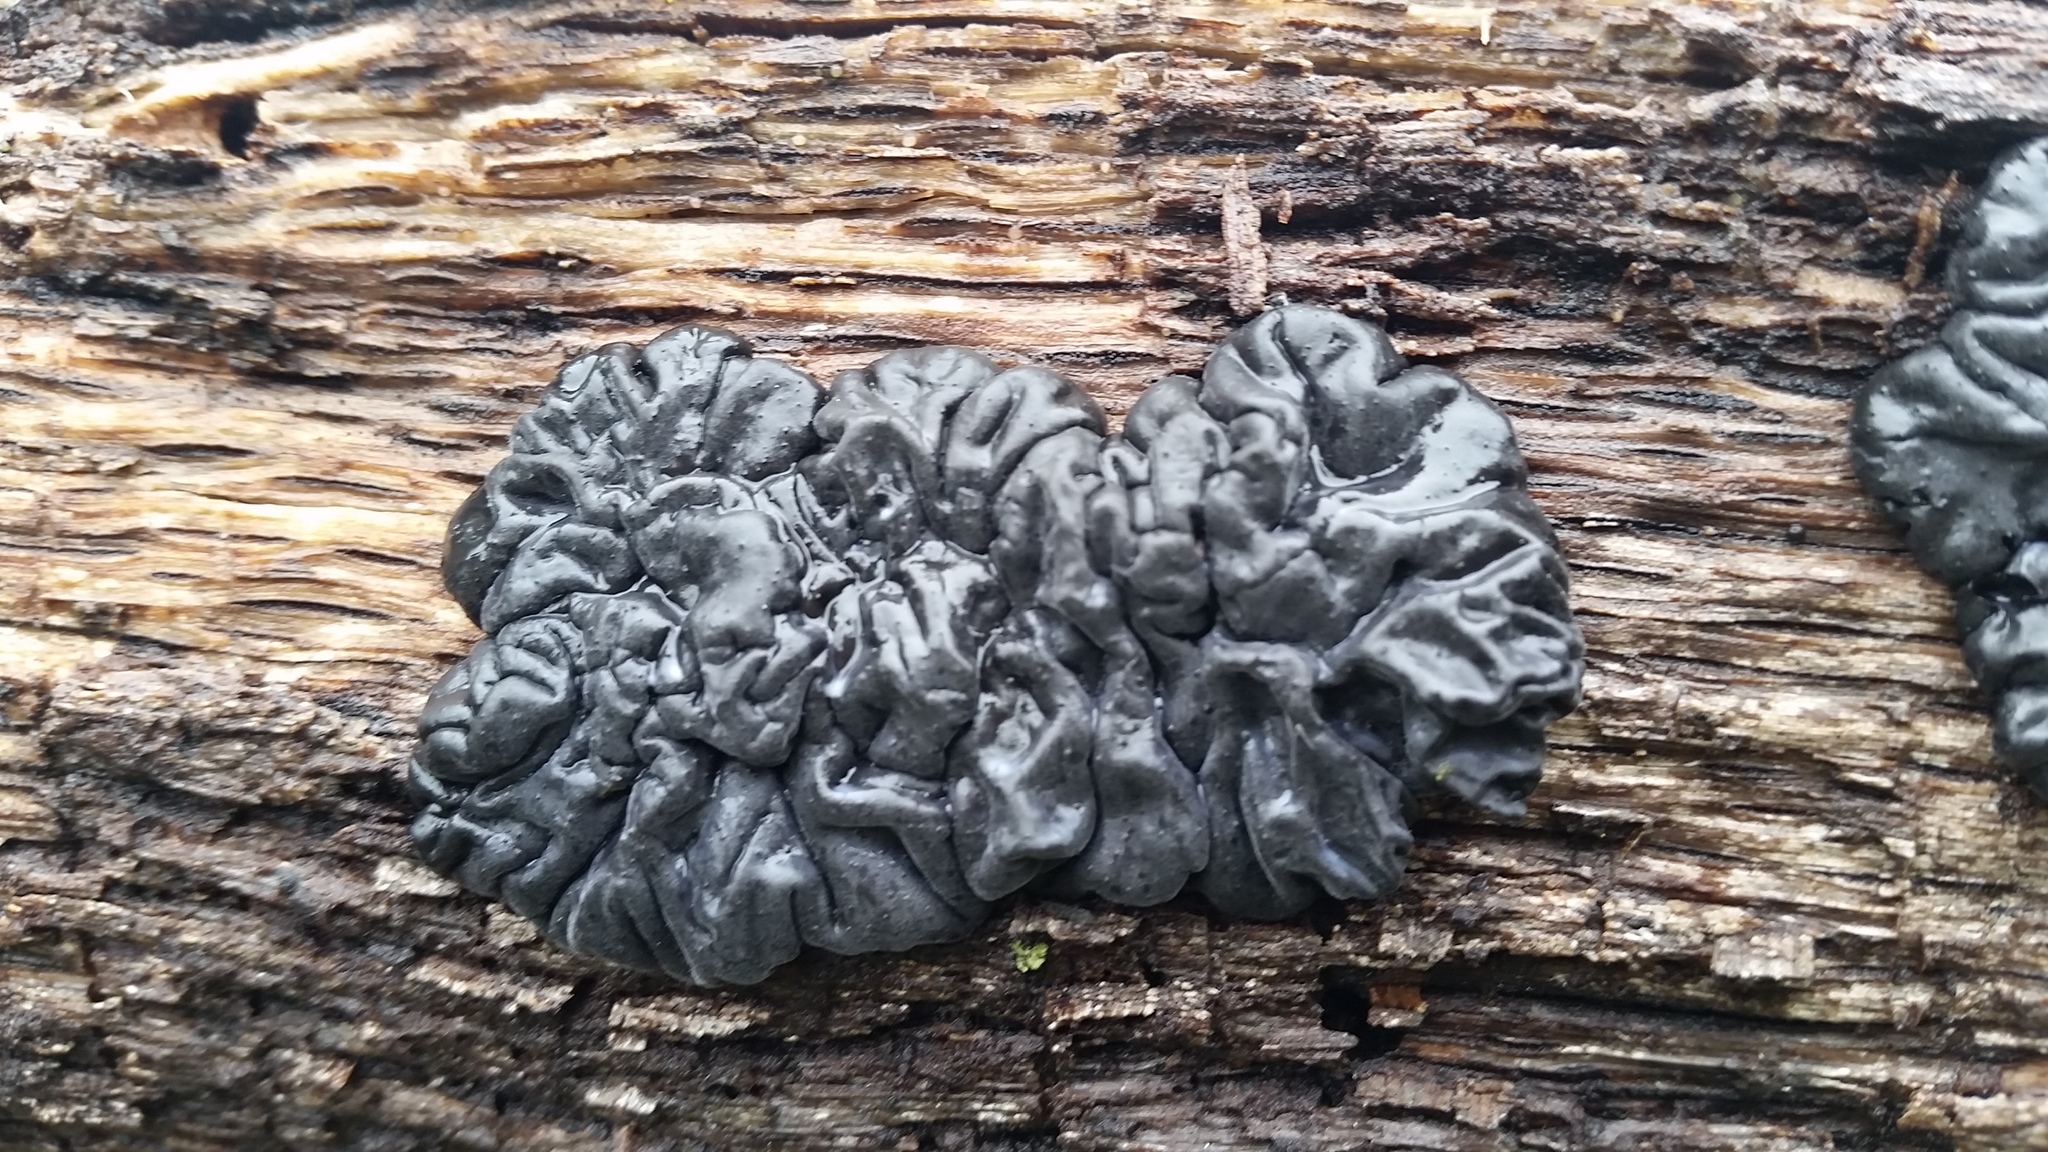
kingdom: Fungi
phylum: Basidiomycota
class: Agaricomycetes
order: Auriculariales
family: Auriculariaceae
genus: Exidia
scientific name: Exidia glandulosa
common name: Witches' butter
